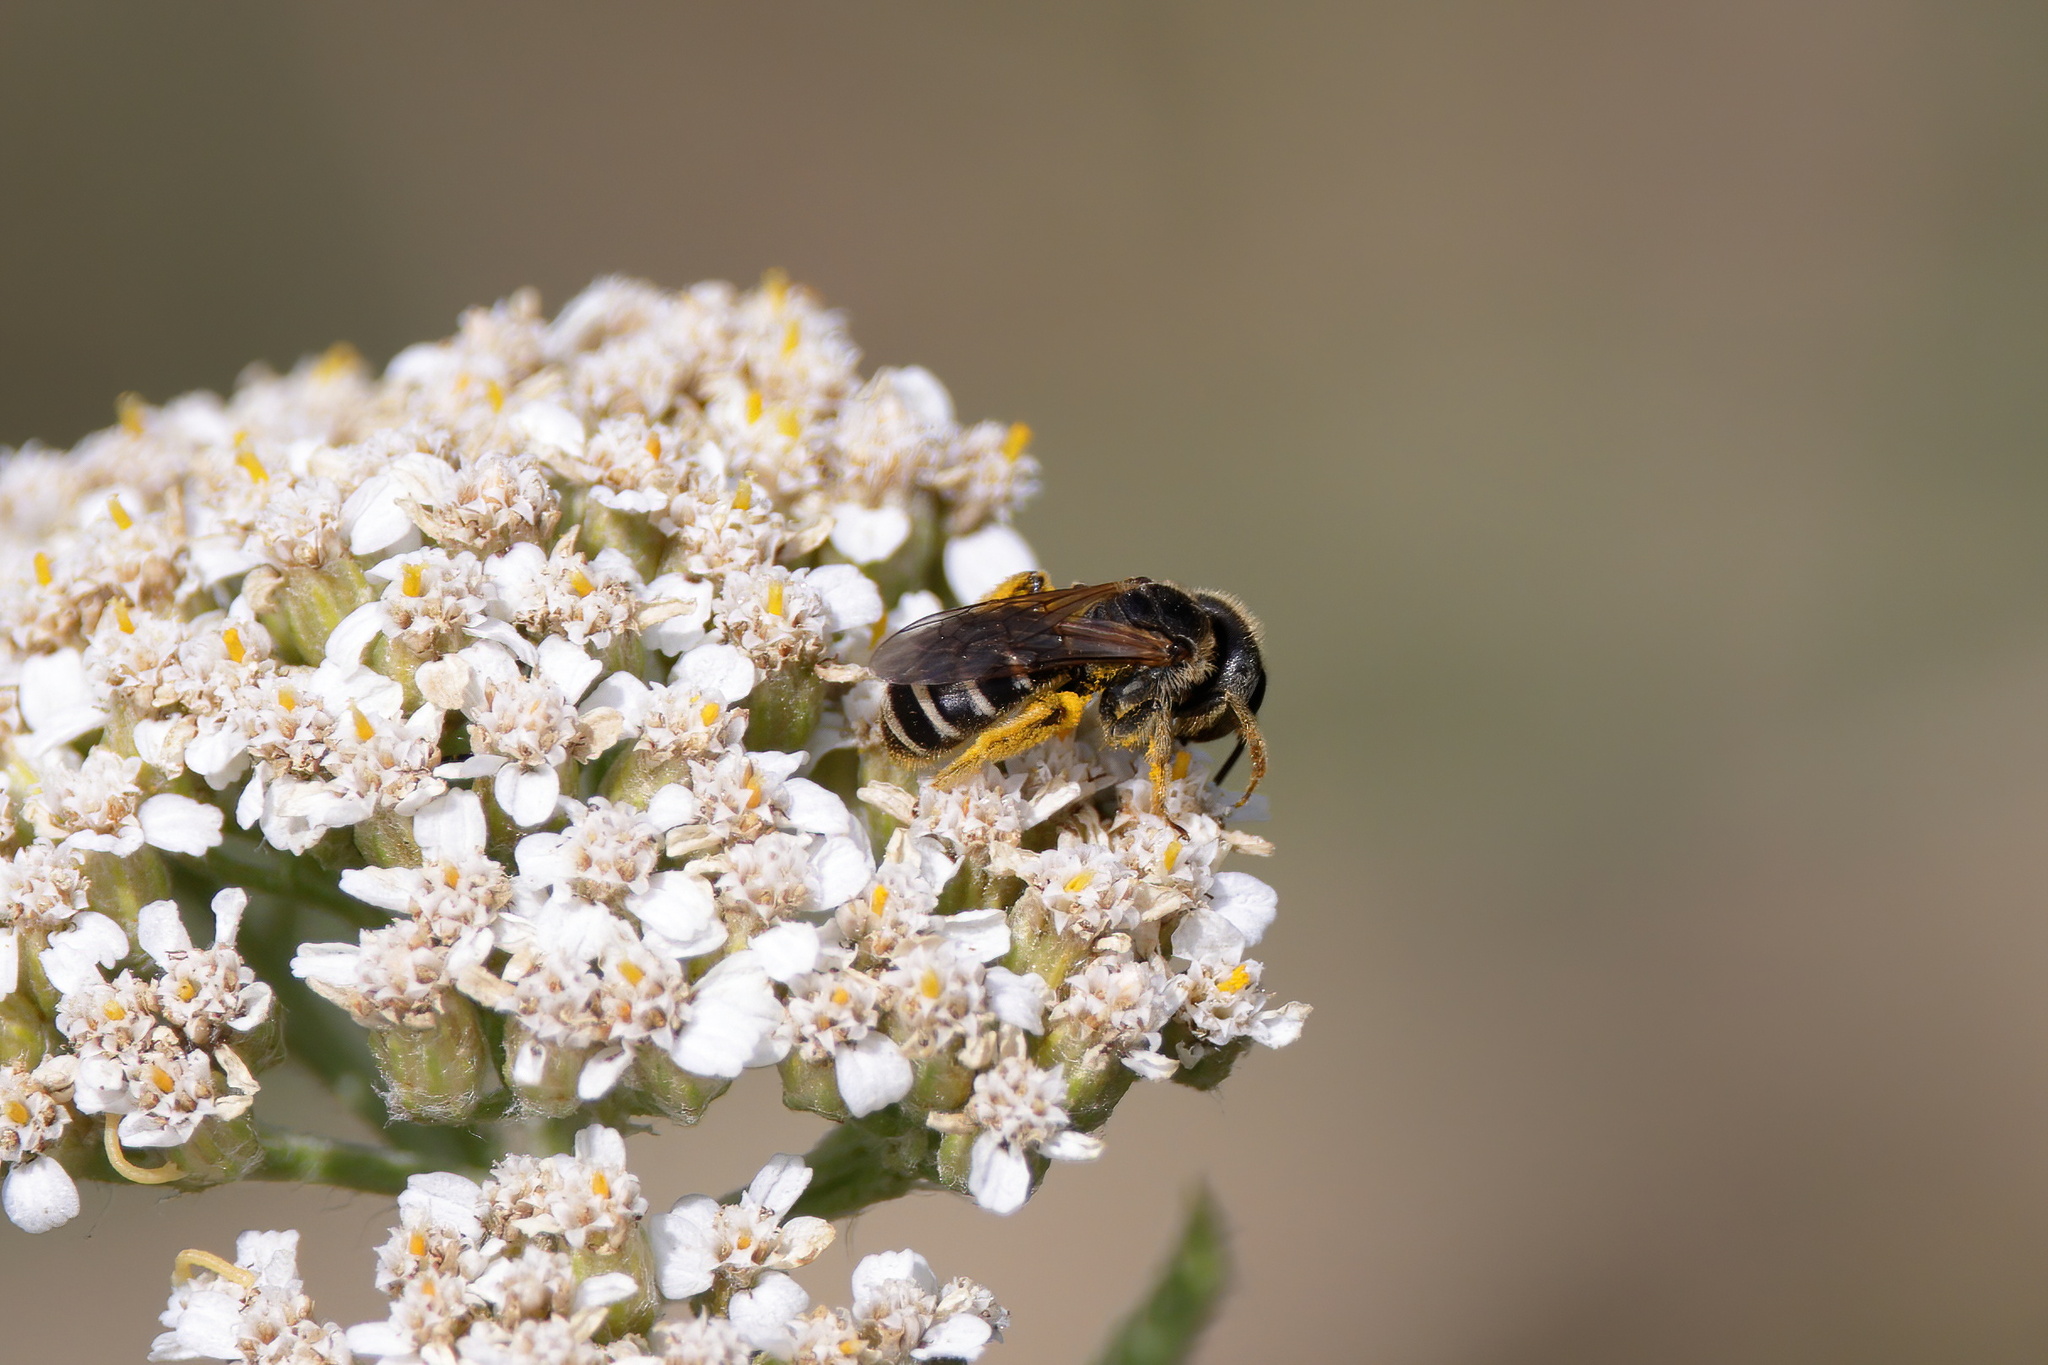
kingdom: Animalia
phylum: Arthropoda
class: Insecta
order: Hymenoptera
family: Halictidae
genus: Halictus
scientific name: Halictus ligatus
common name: Ligated furrow bee
